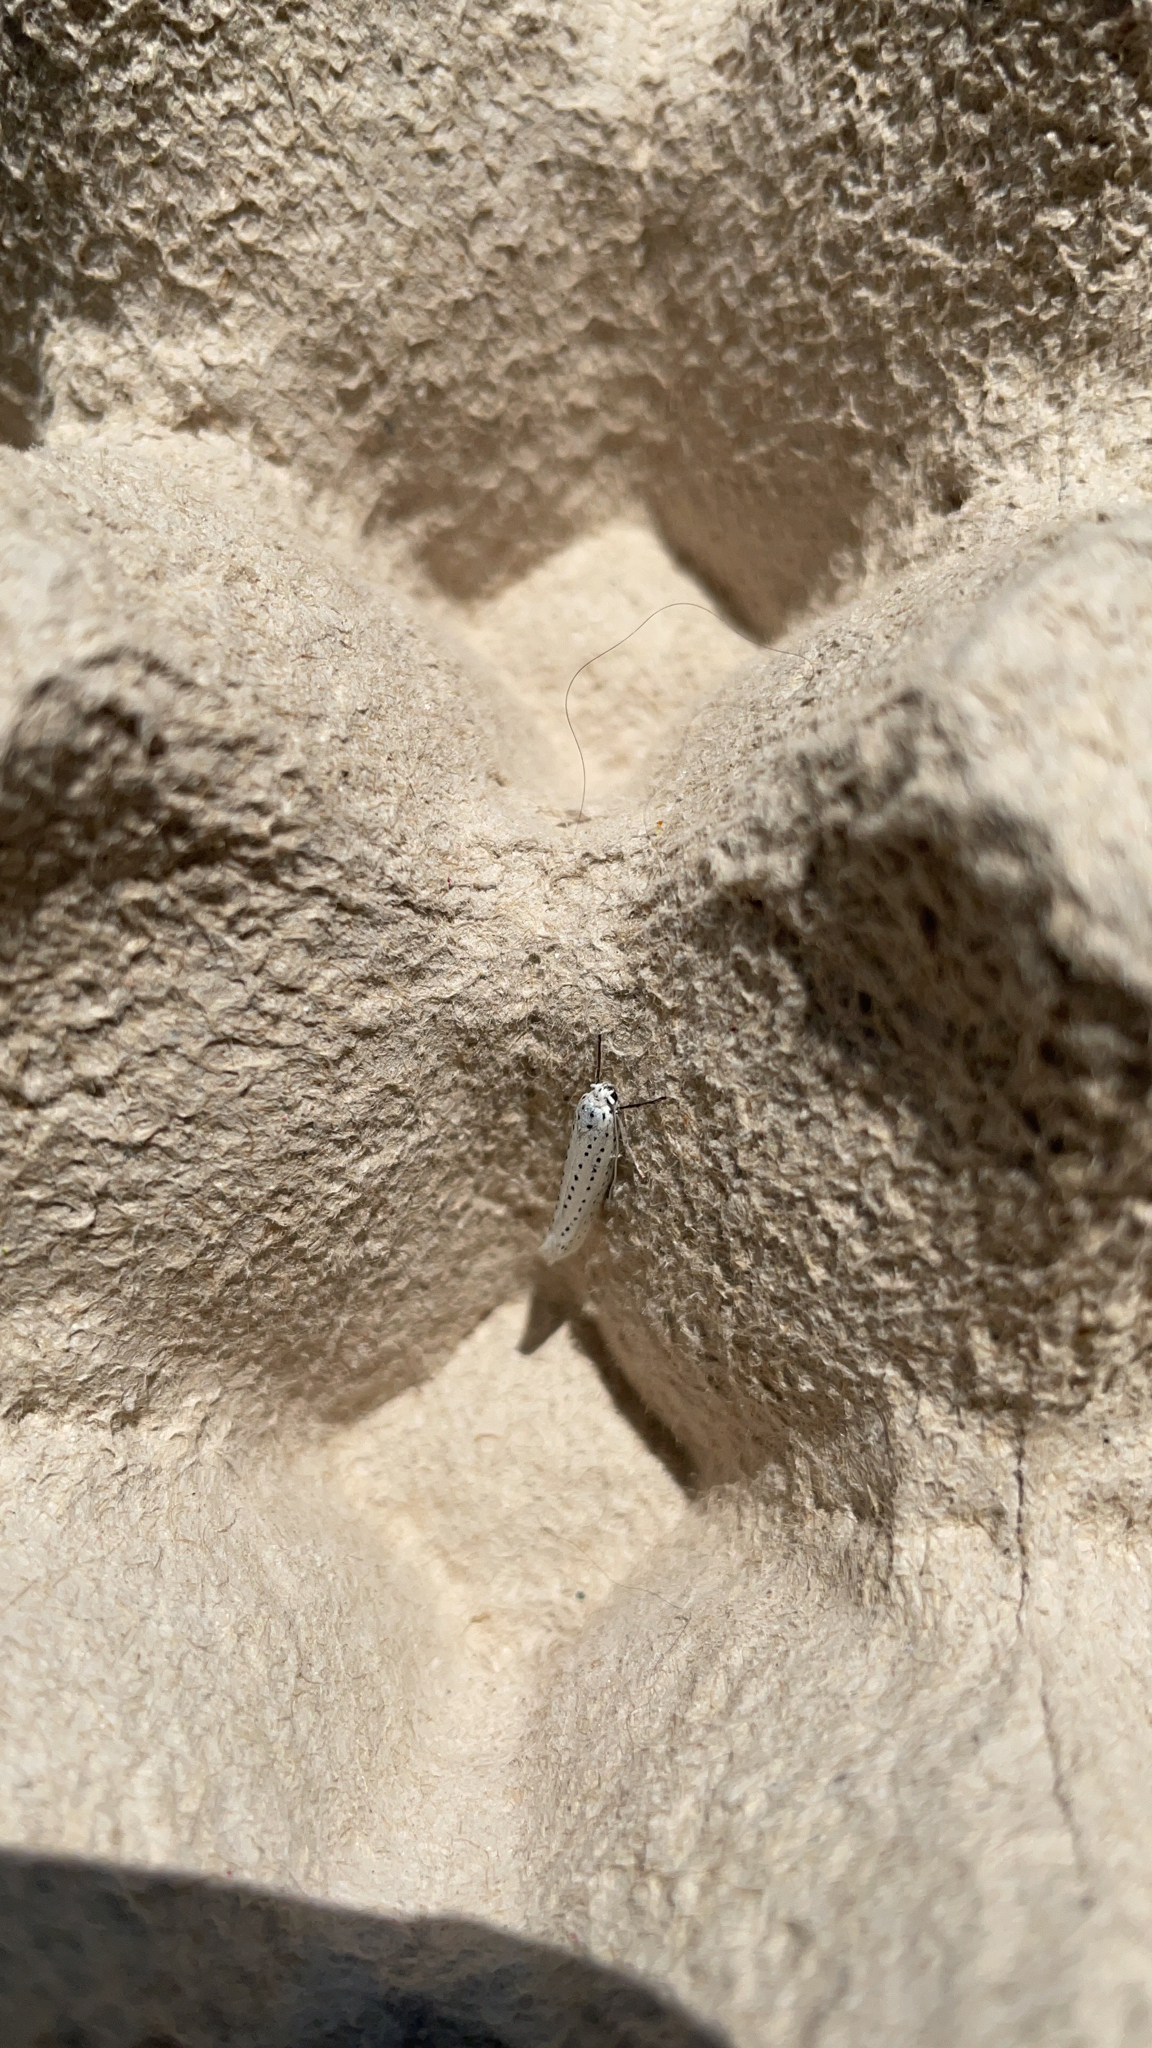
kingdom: Animalia
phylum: Arthropoda
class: Insecta
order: Lepidoptera
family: Yponomeutidae
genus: Yponomeuta
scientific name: Yponomeuta evonymella
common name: Bird-cherry ermine
